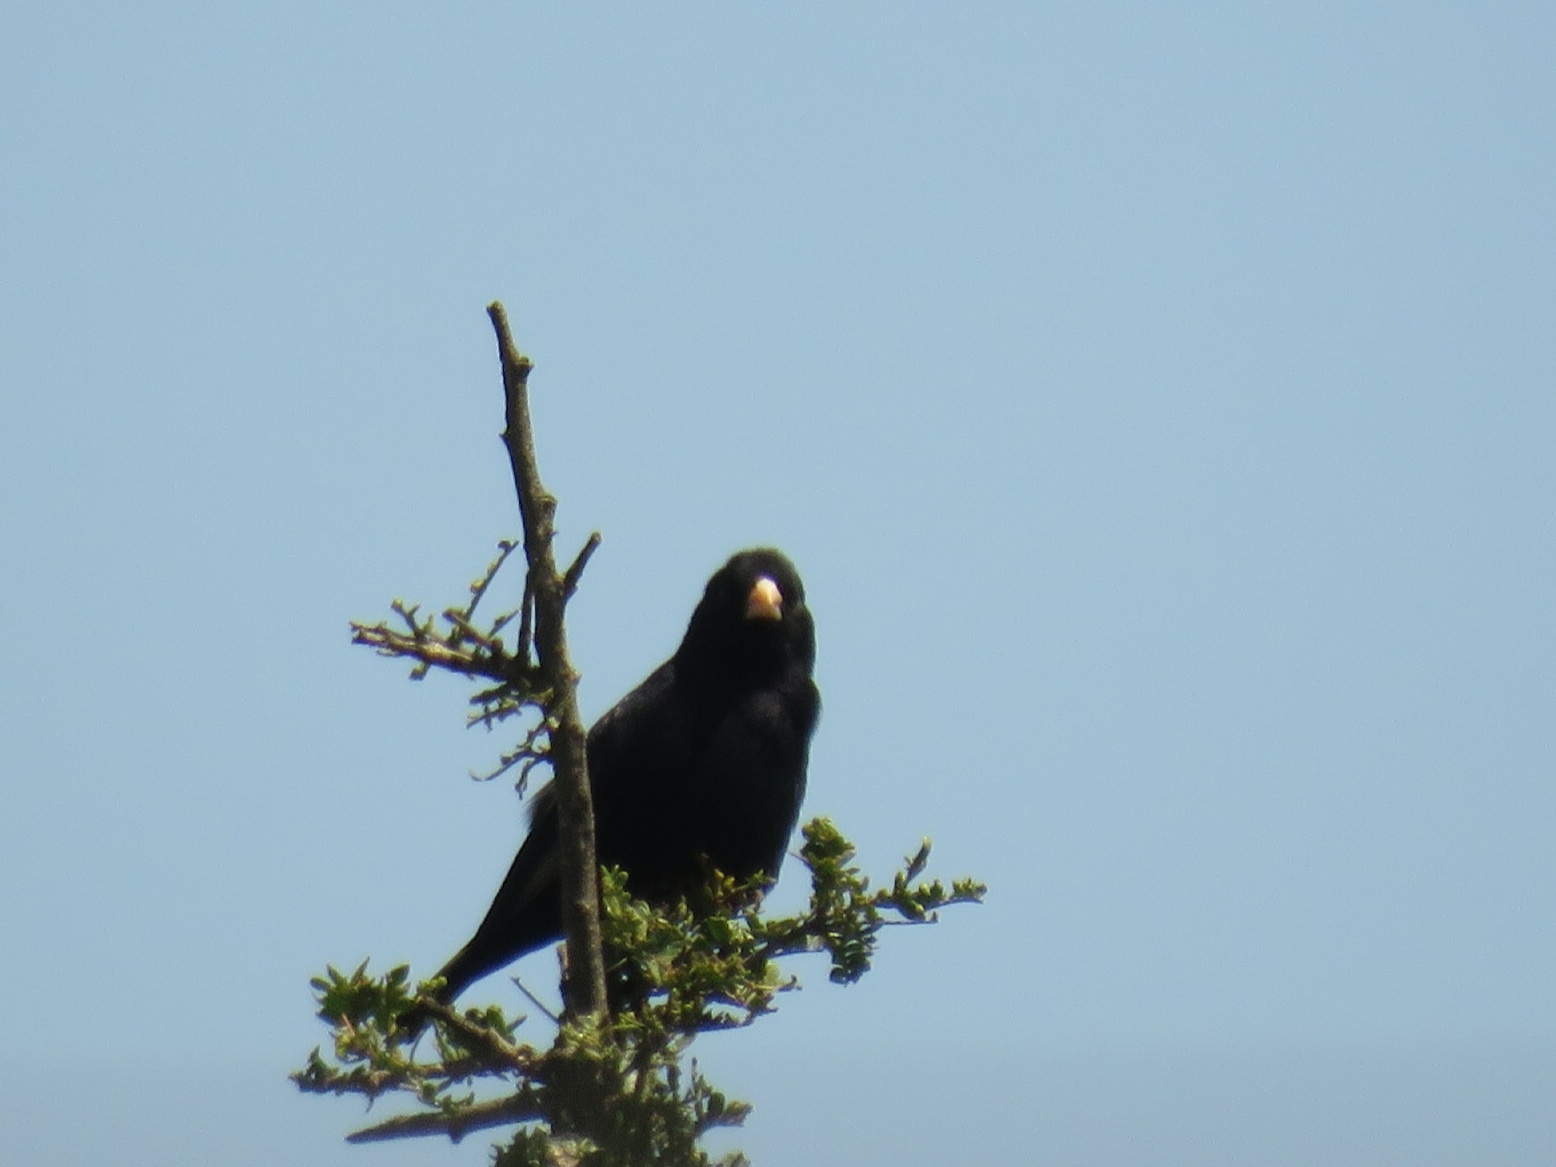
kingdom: Animalia
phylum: Chordata
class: Aves
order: Passeriformes
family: Viduidae
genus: Vidua
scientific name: Vidua funerea
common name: Dusky indigobird
